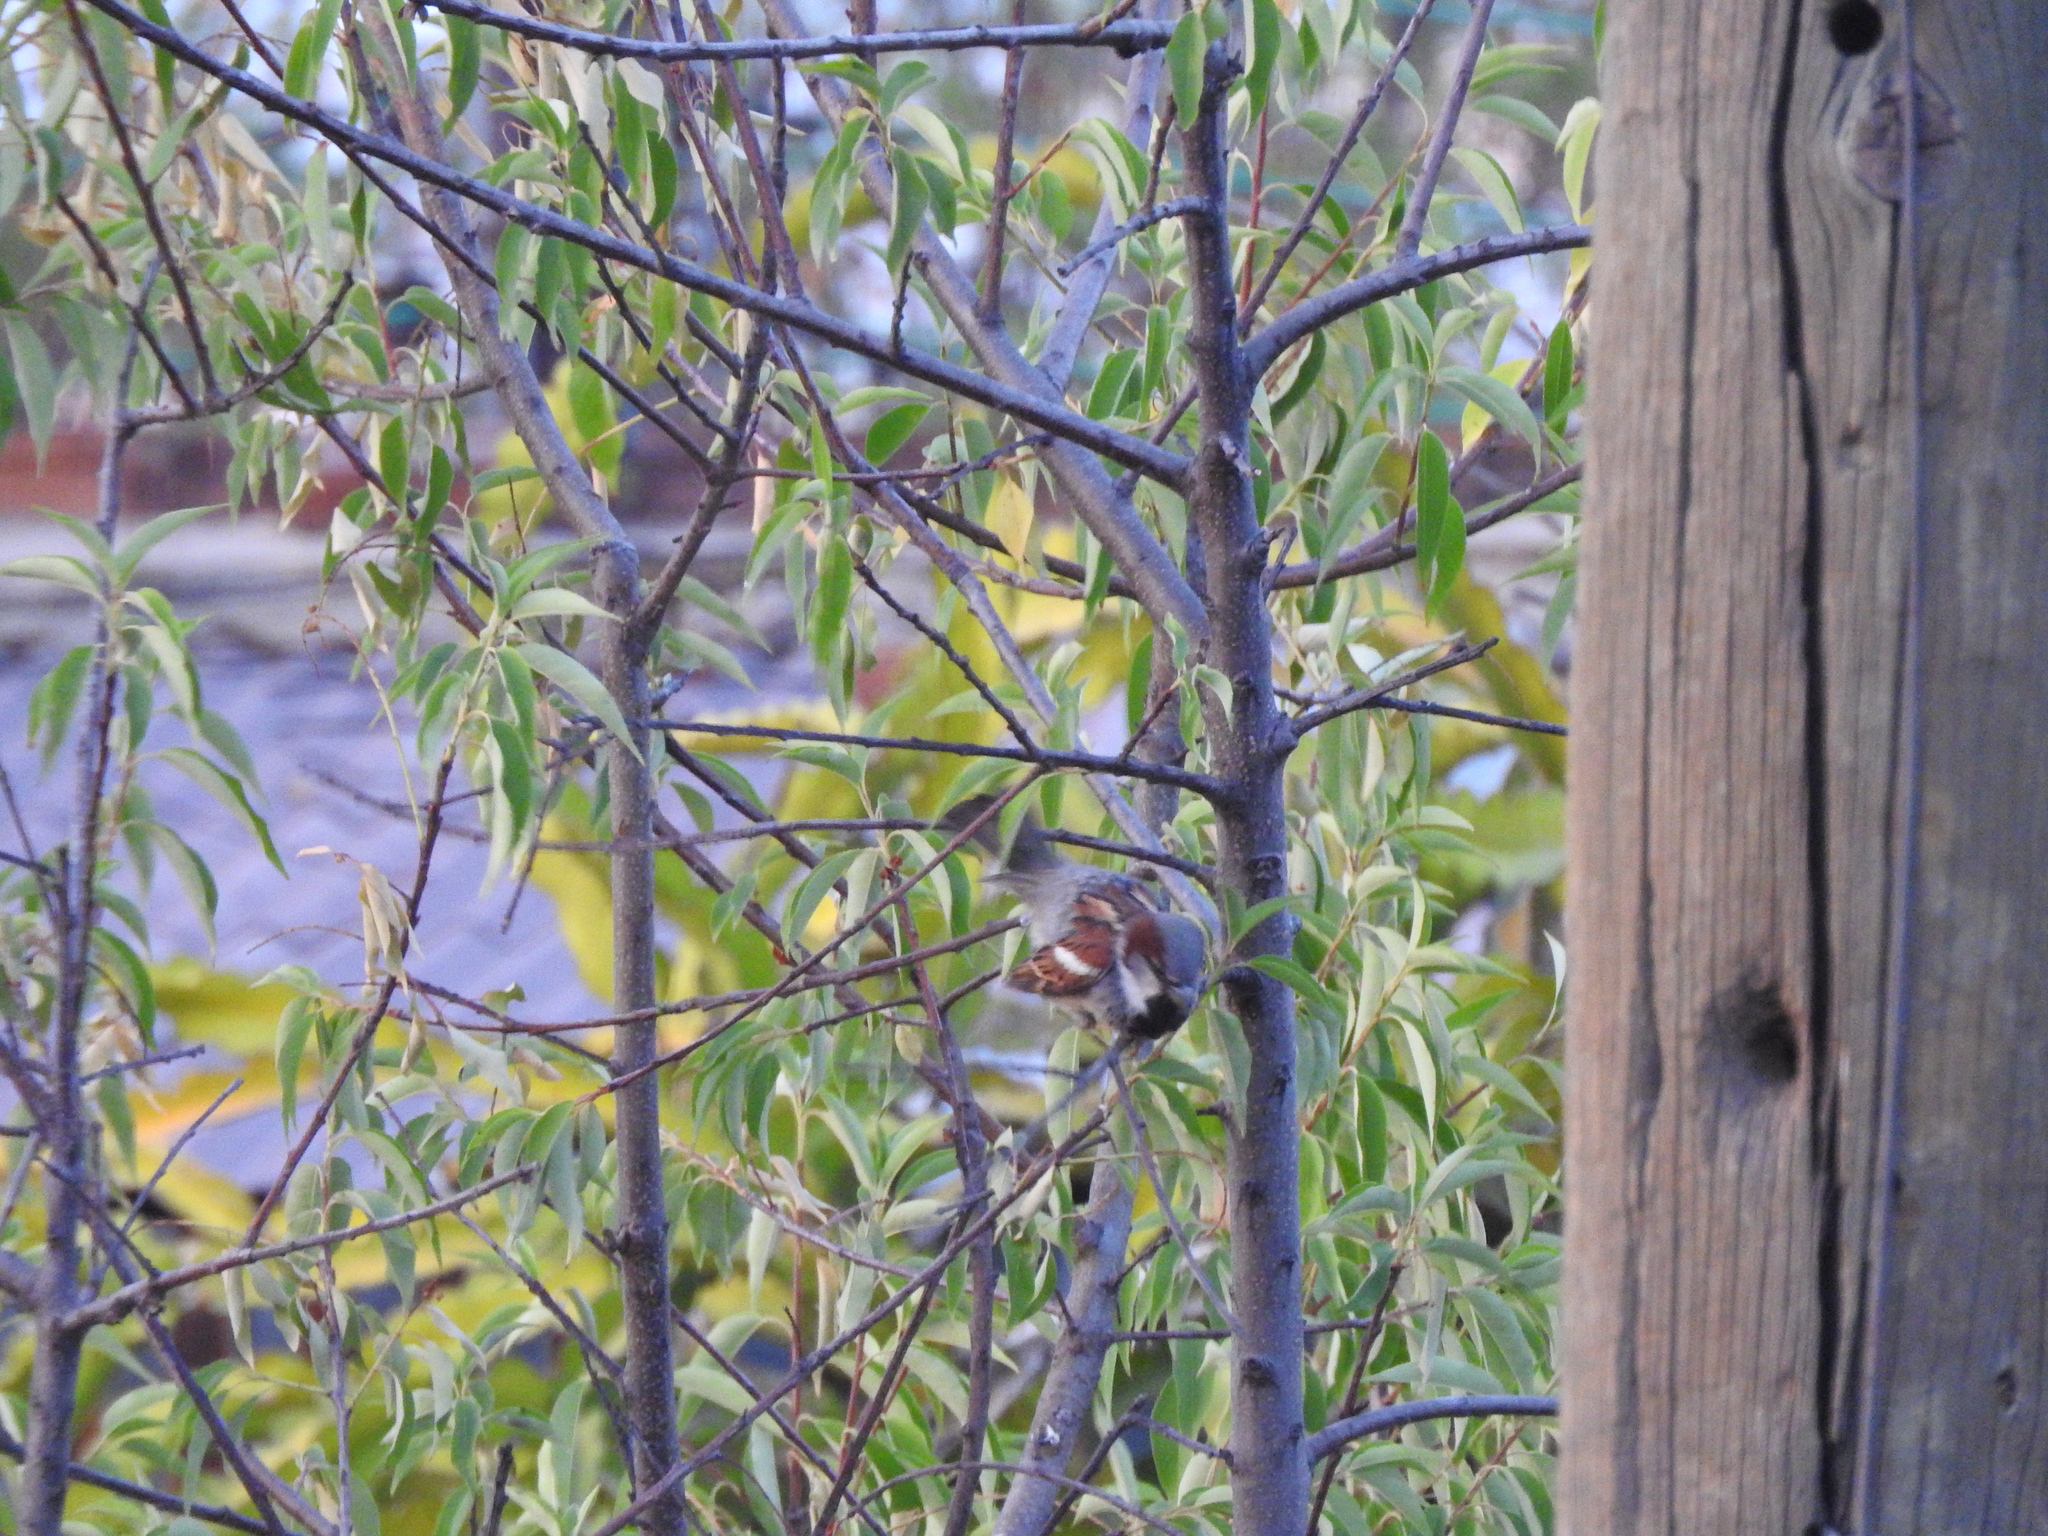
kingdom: Animalia
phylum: Chordata
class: Aves
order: Passeriformes
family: Passeridae
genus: Passer
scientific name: Passer domesticus
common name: House sparrow
